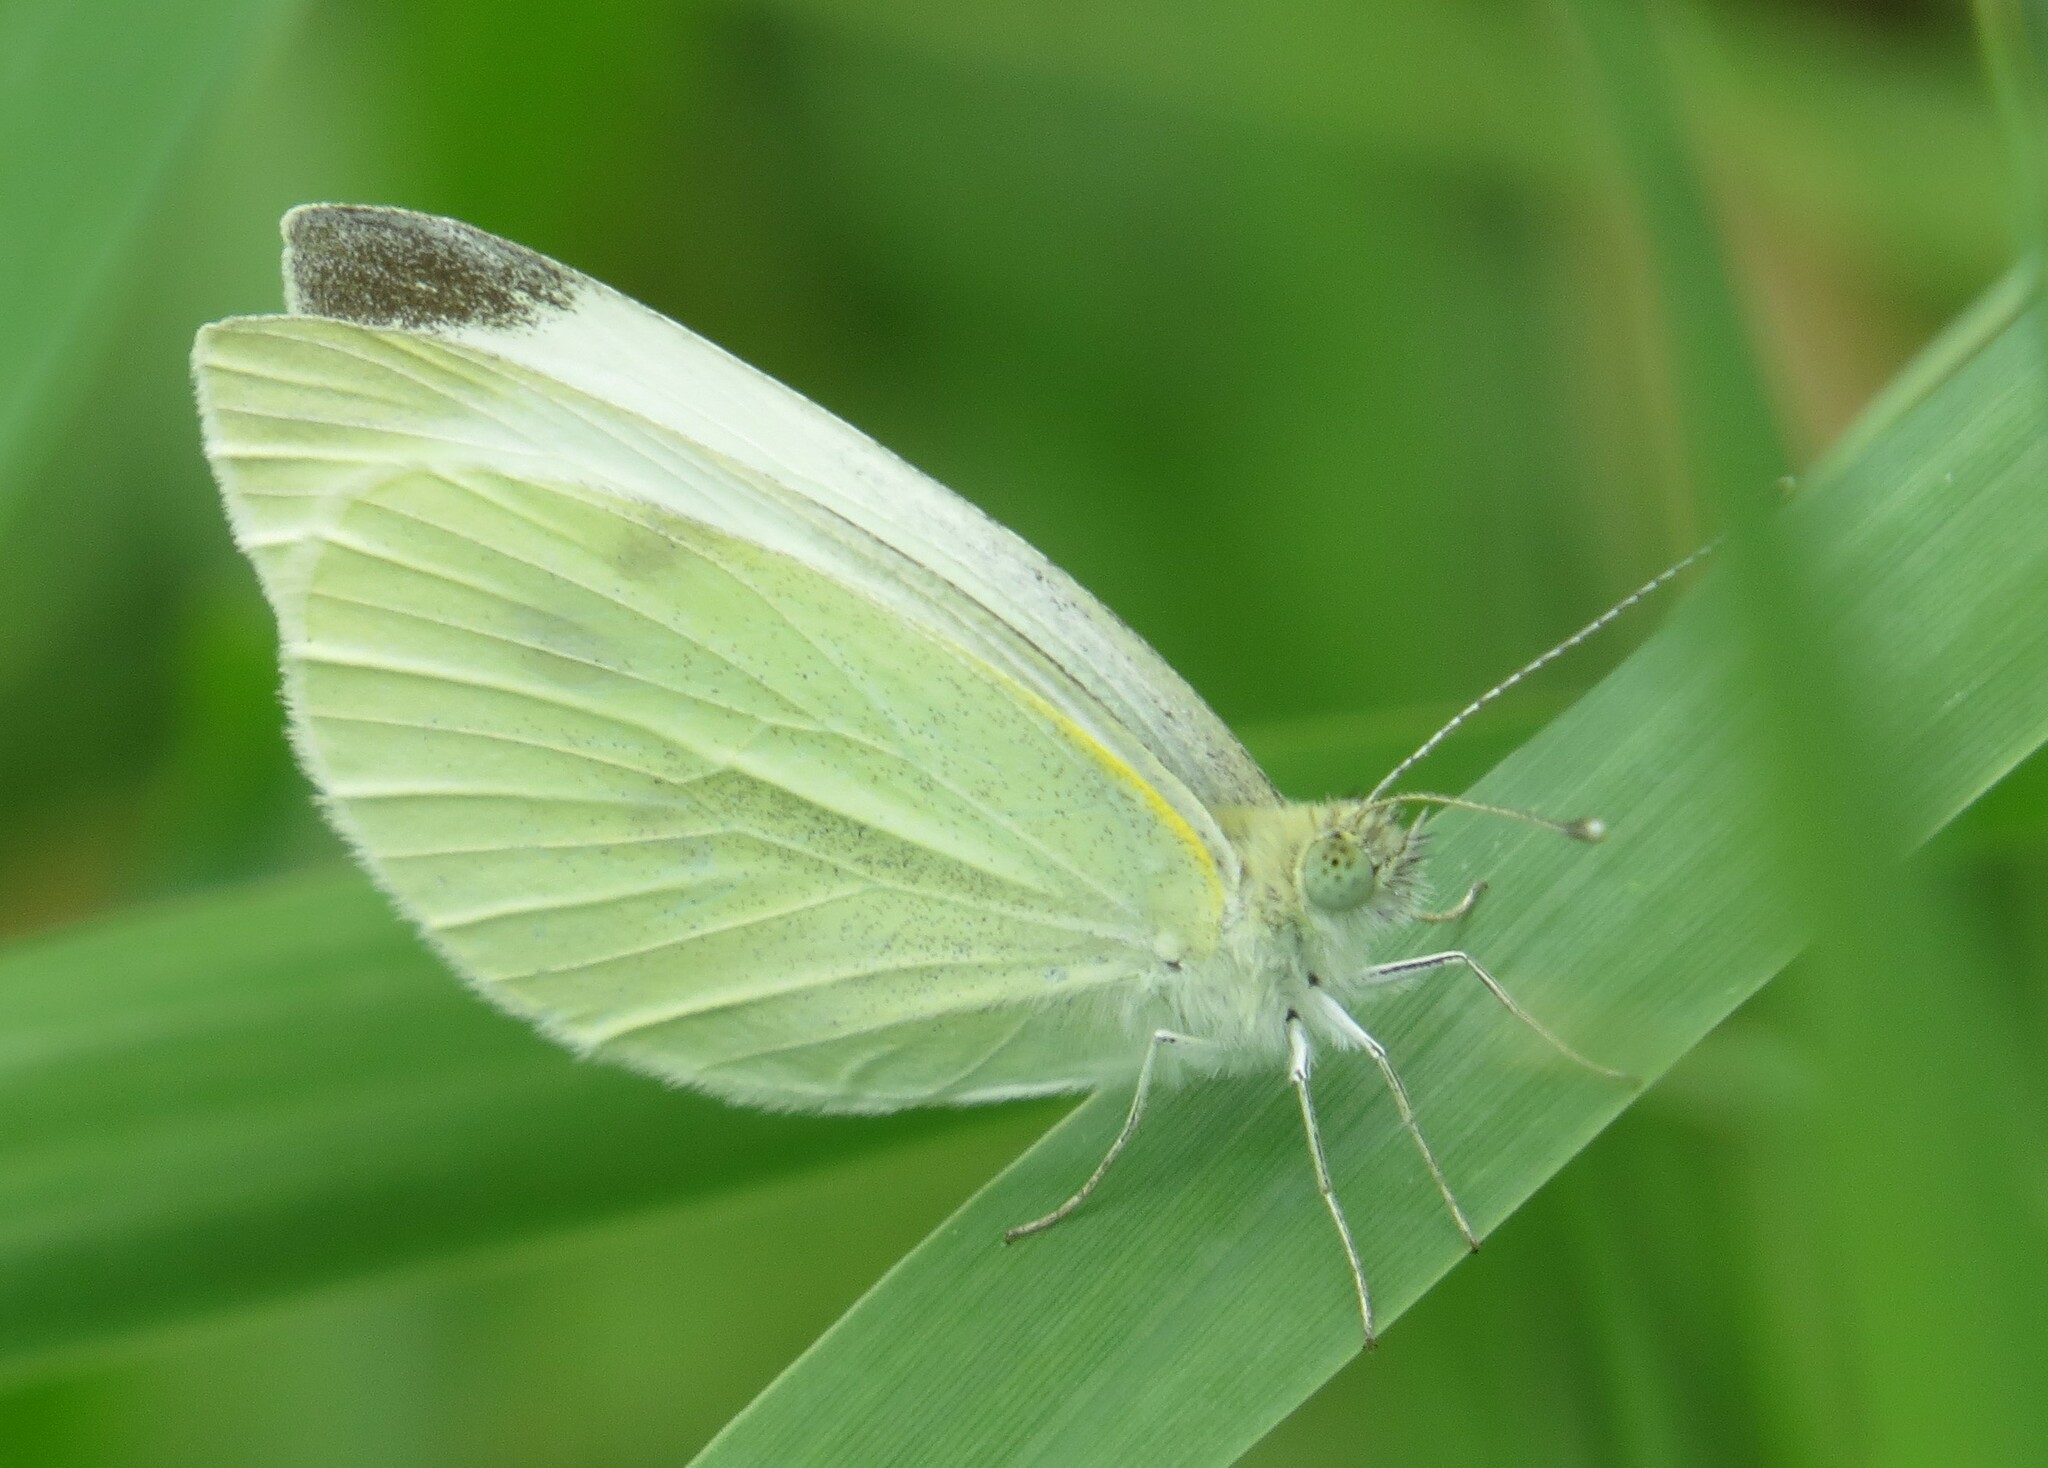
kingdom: Animalia
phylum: Arthropoda
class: Insecta
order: Lepidoptera
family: Pieridae
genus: Pieris
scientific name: Pieris rapae
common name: Small white
